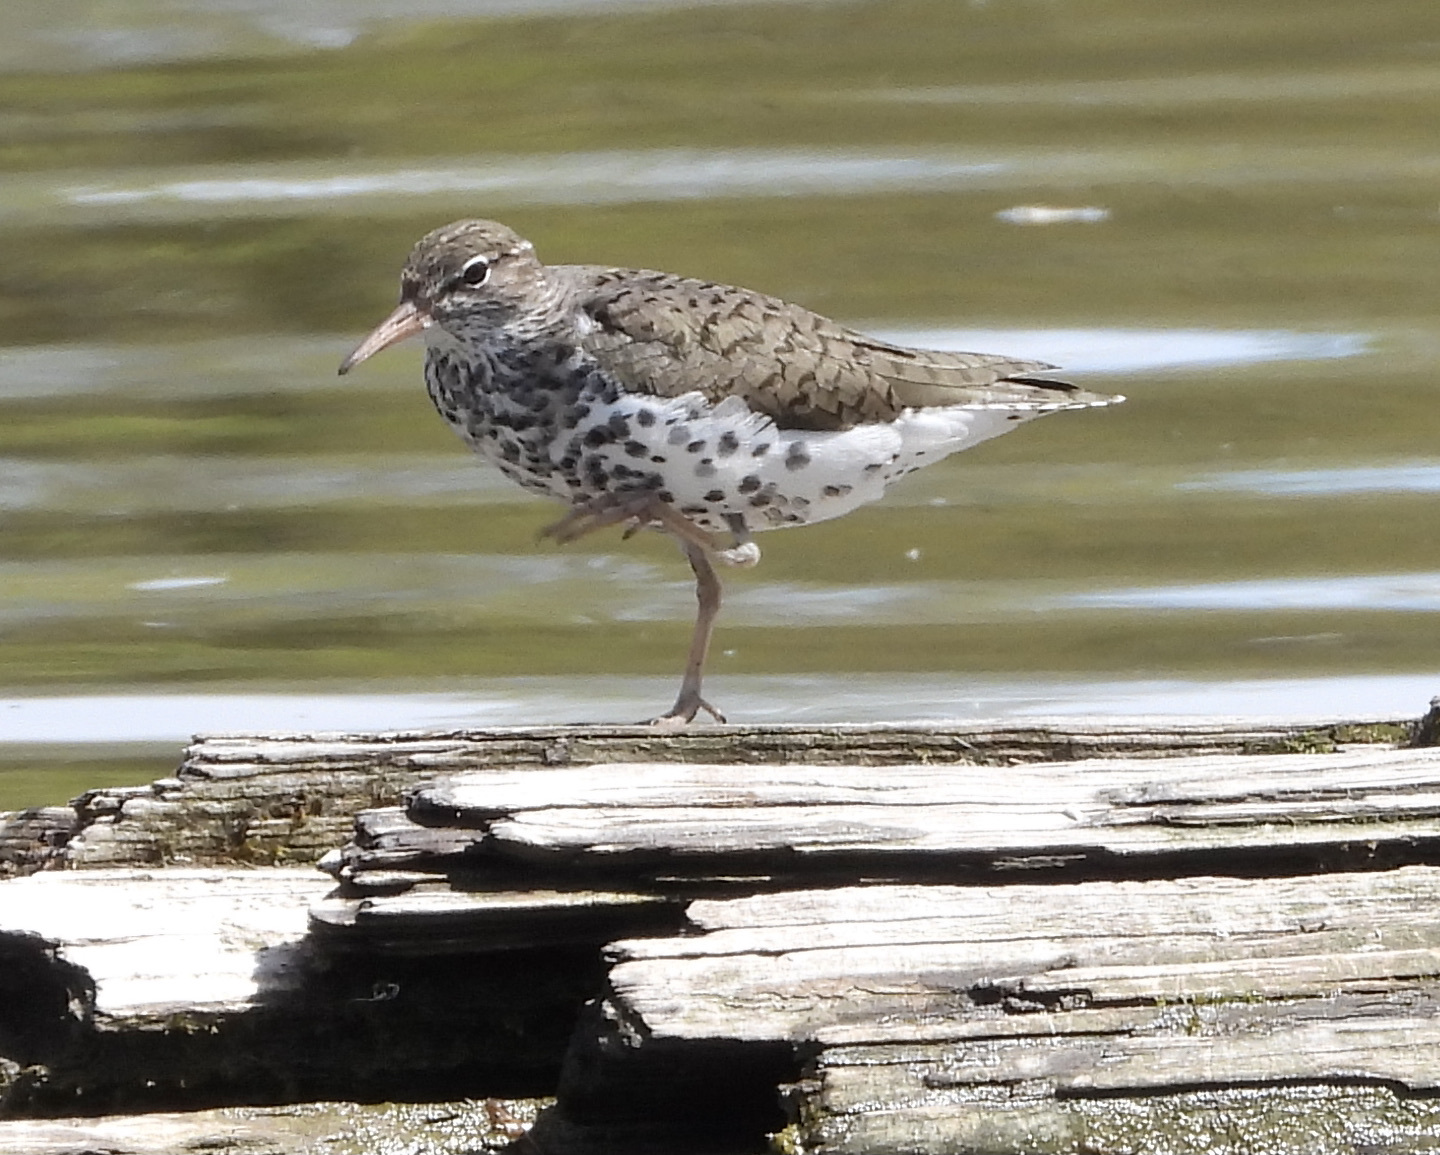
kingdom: Animalia
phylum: Chordata
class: Aves
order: Charadriiformes
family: Scolopacidae
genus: Actitis
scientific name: Actitis macularius
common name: Spotted sandpiper
